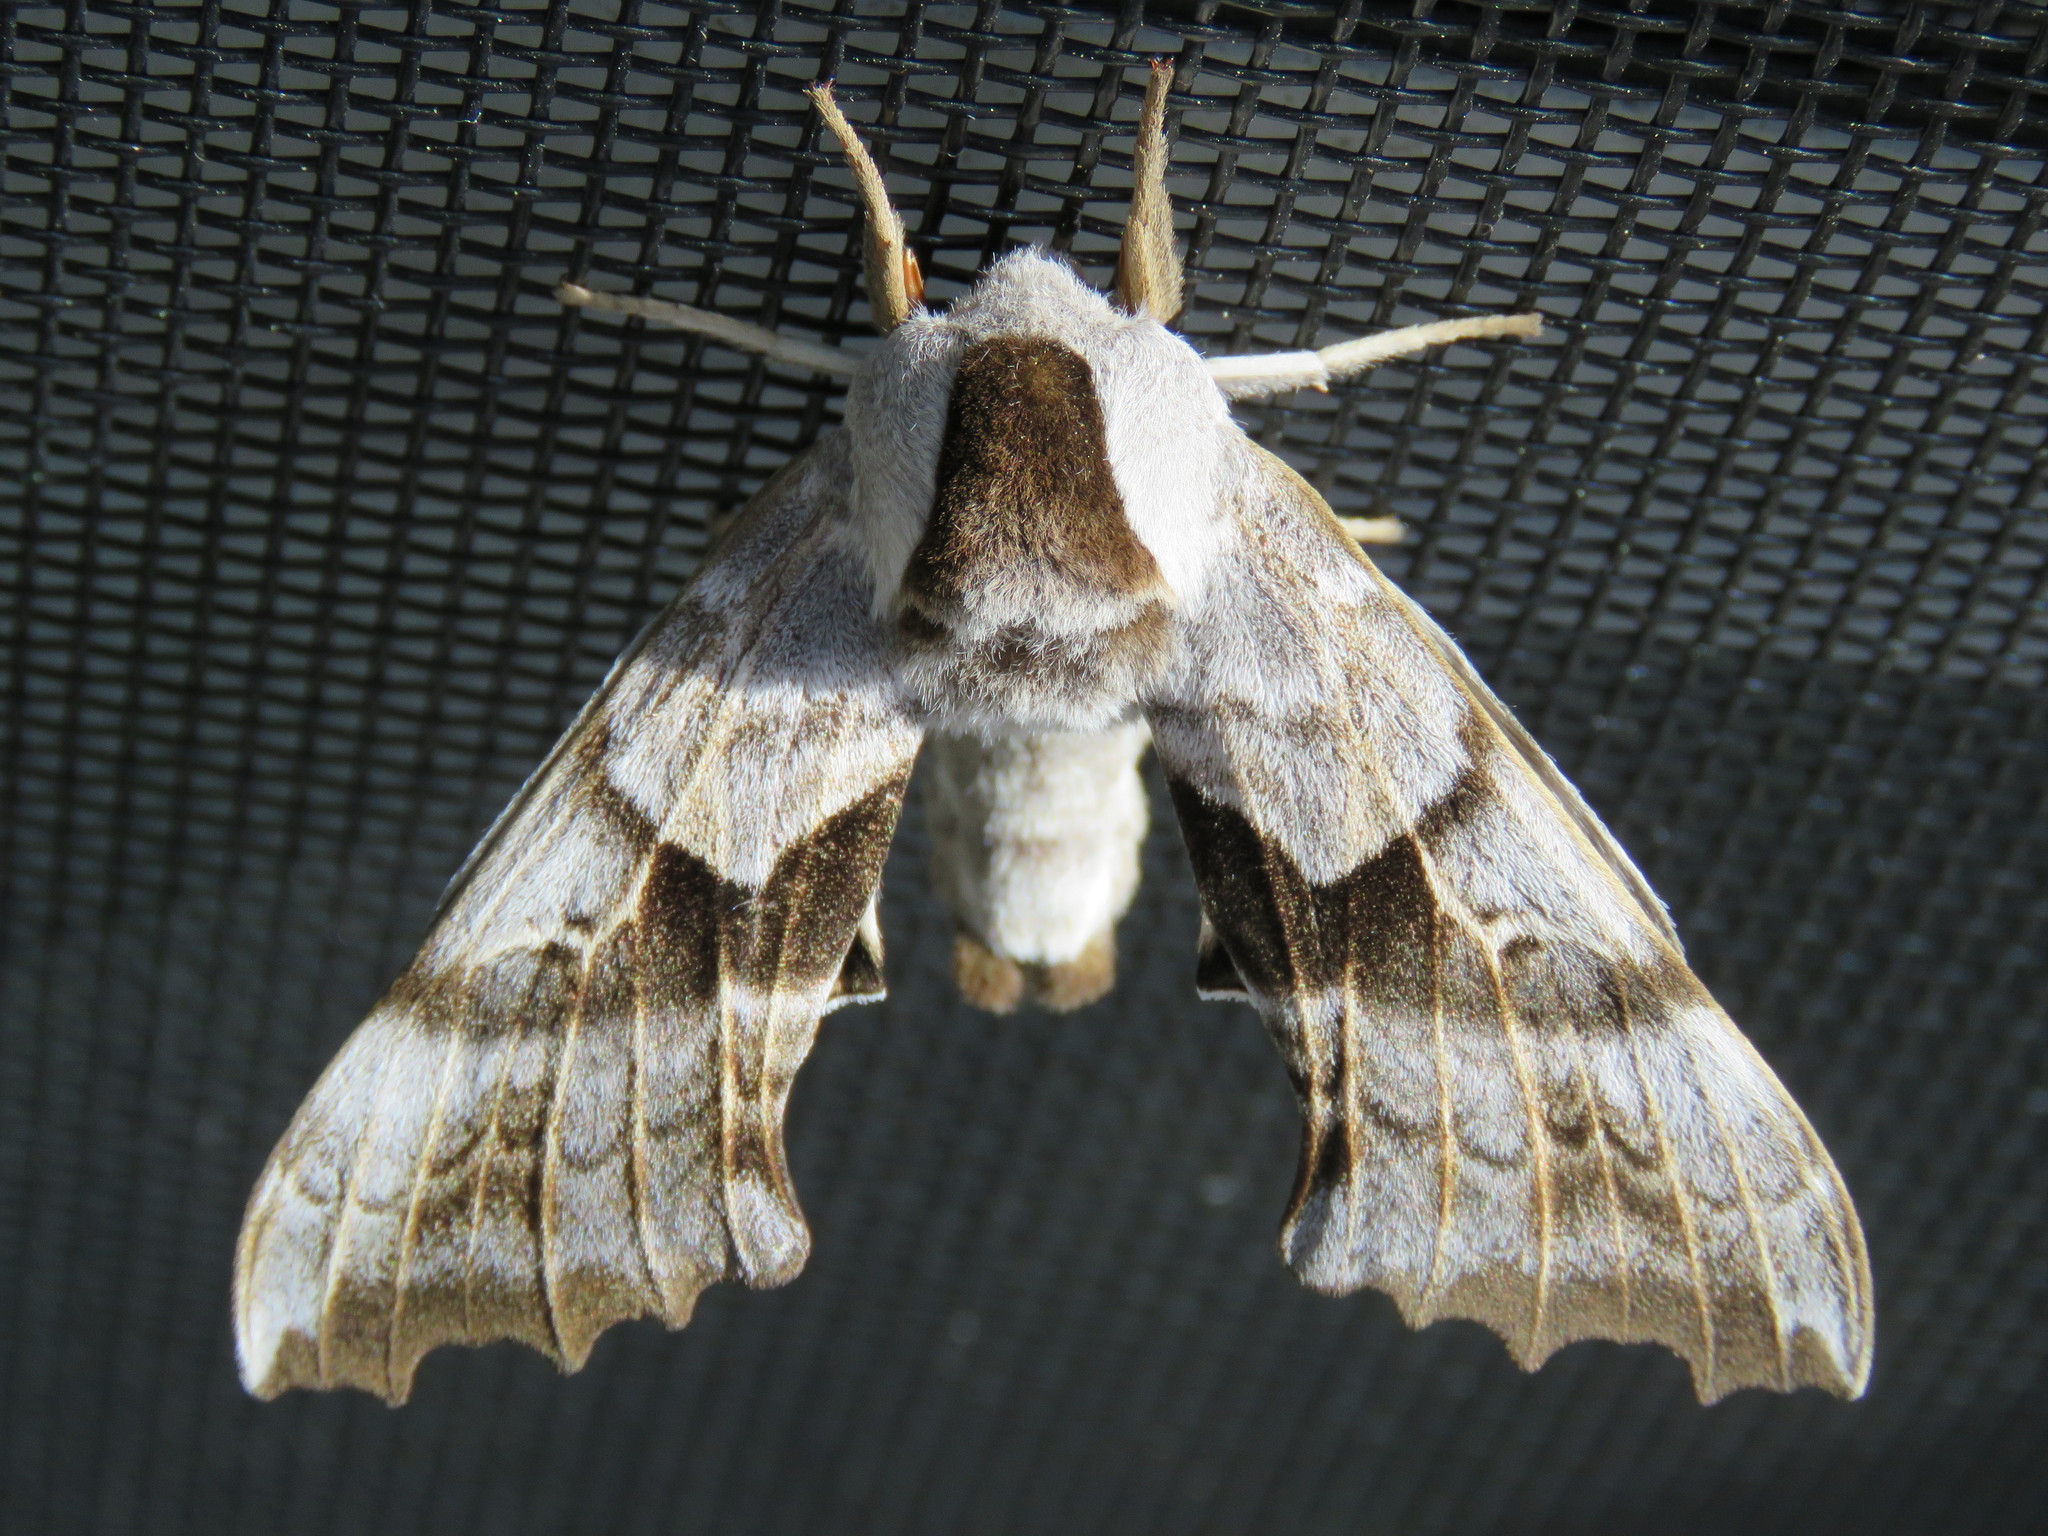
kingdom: Animalia
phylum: Arthropoda
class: Insecta
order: Lepidoptera
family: Sphingidae
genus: Smerinthus
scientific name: Smerinthus cerisyi
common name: Cerisy's sphinx moth
